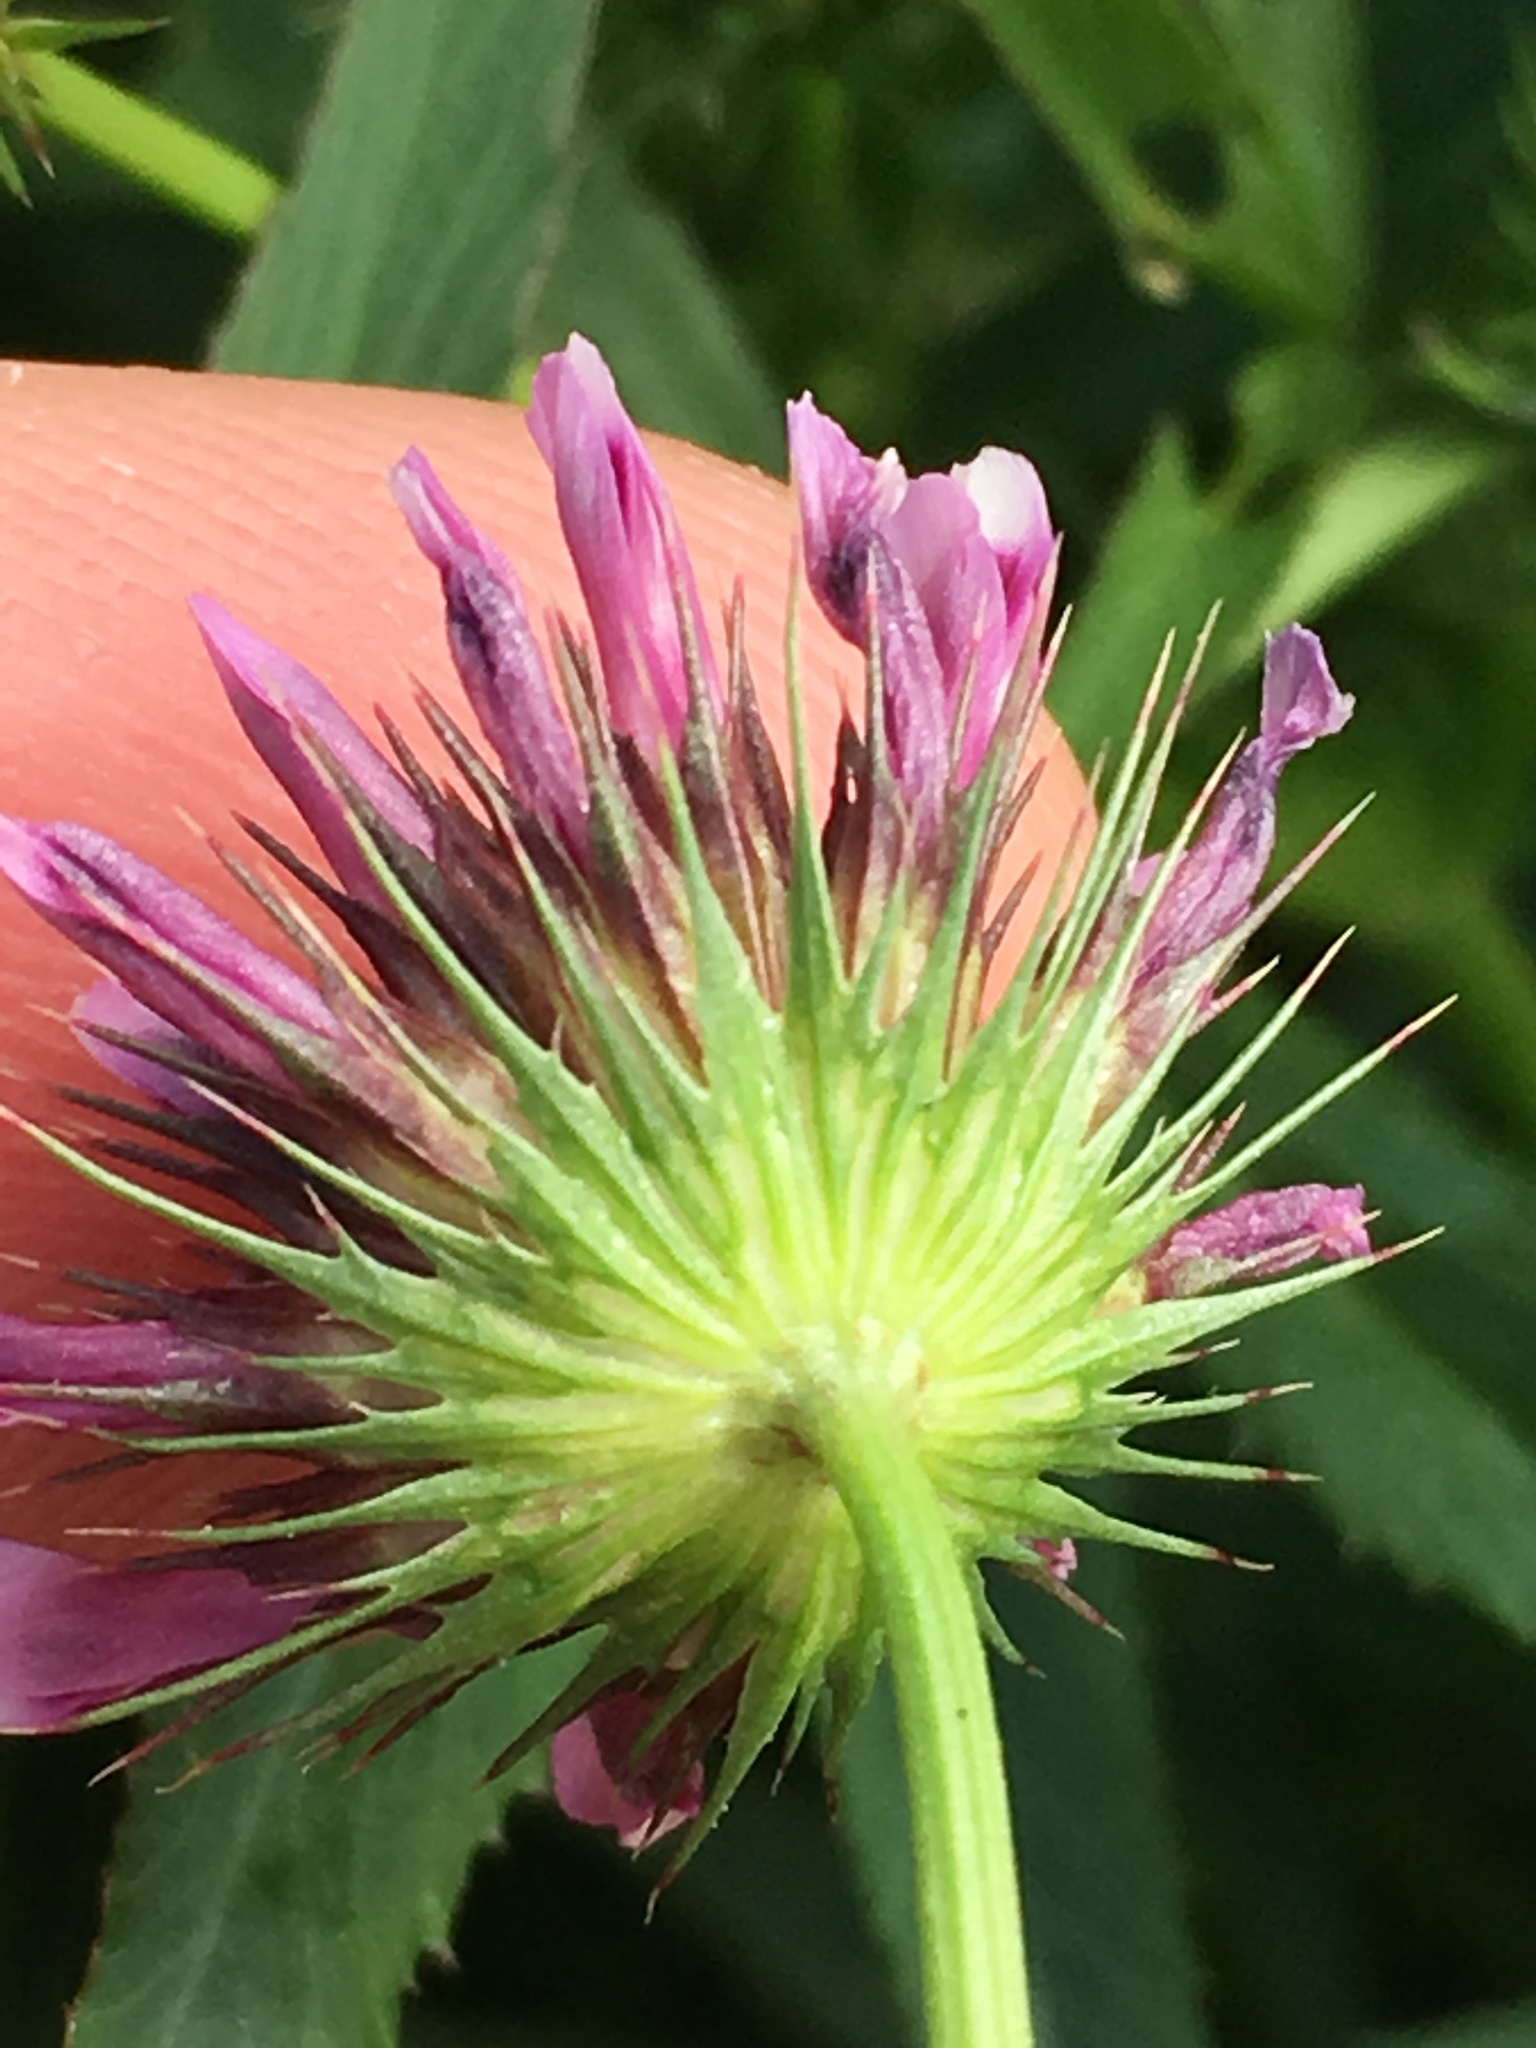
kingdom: Plantae
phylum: Tracheophyta
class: Magnoliopsida
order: Fabales
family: Fabaceae
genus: Trifolium
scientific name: Trifolium willdenovii
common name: Tomcat clover
